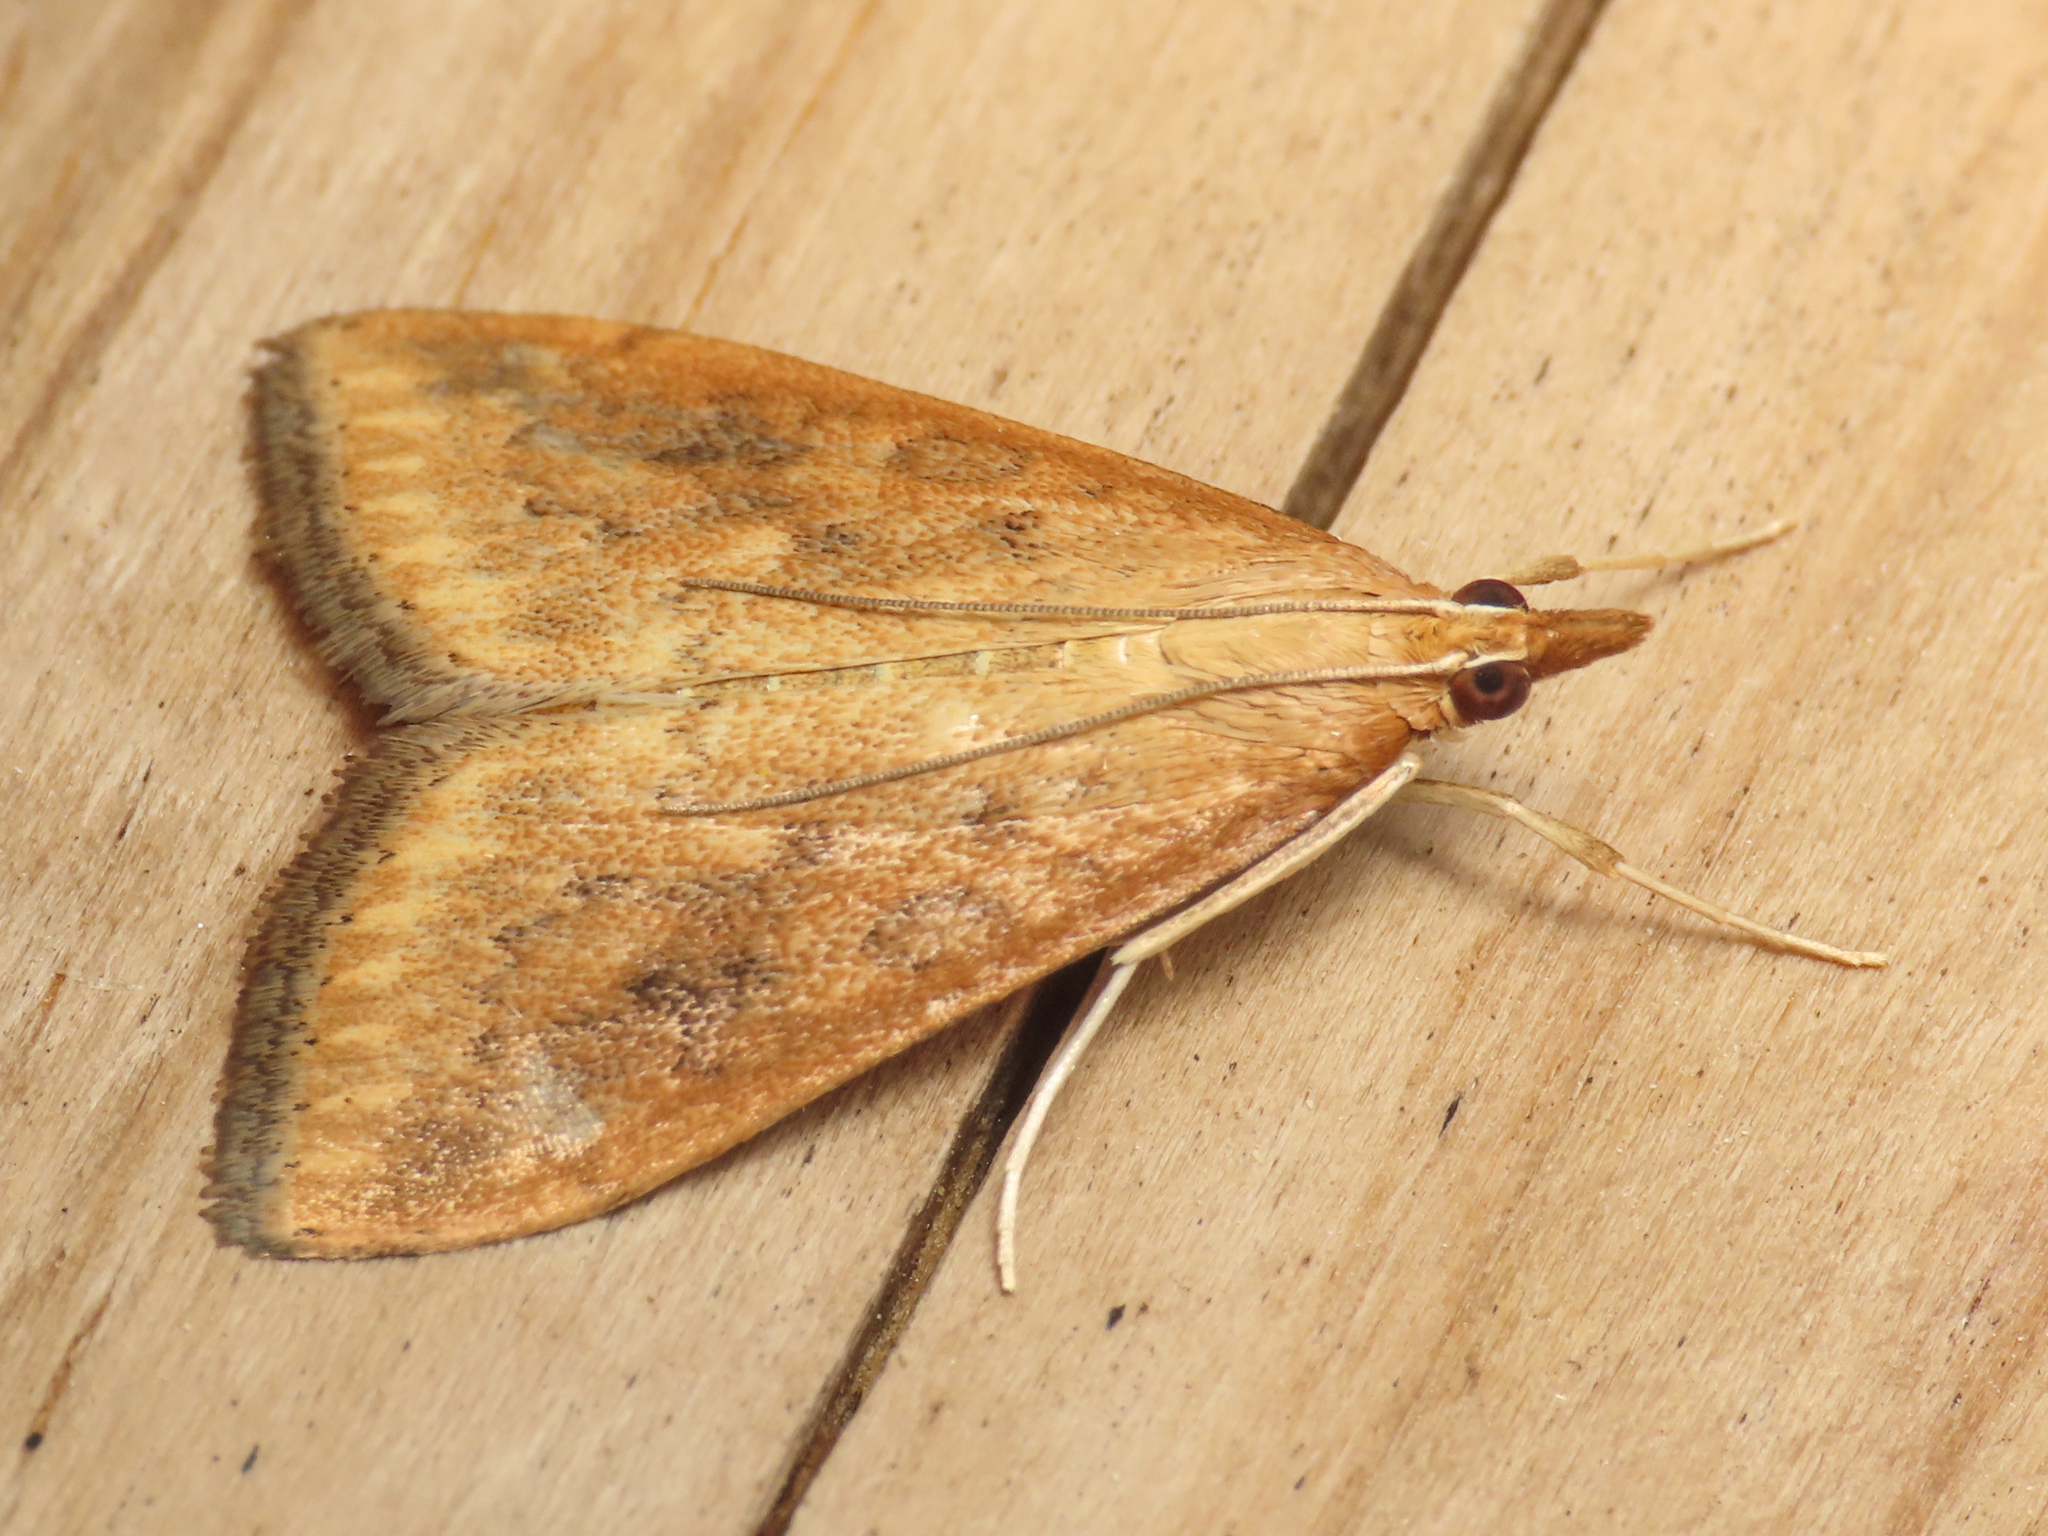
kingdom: Animalia
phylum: Arthropoda
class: Insecta
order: Lepidoptera
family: Crambidae
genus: Udea
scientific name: Udea ferrugalis
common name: Rusty dot
